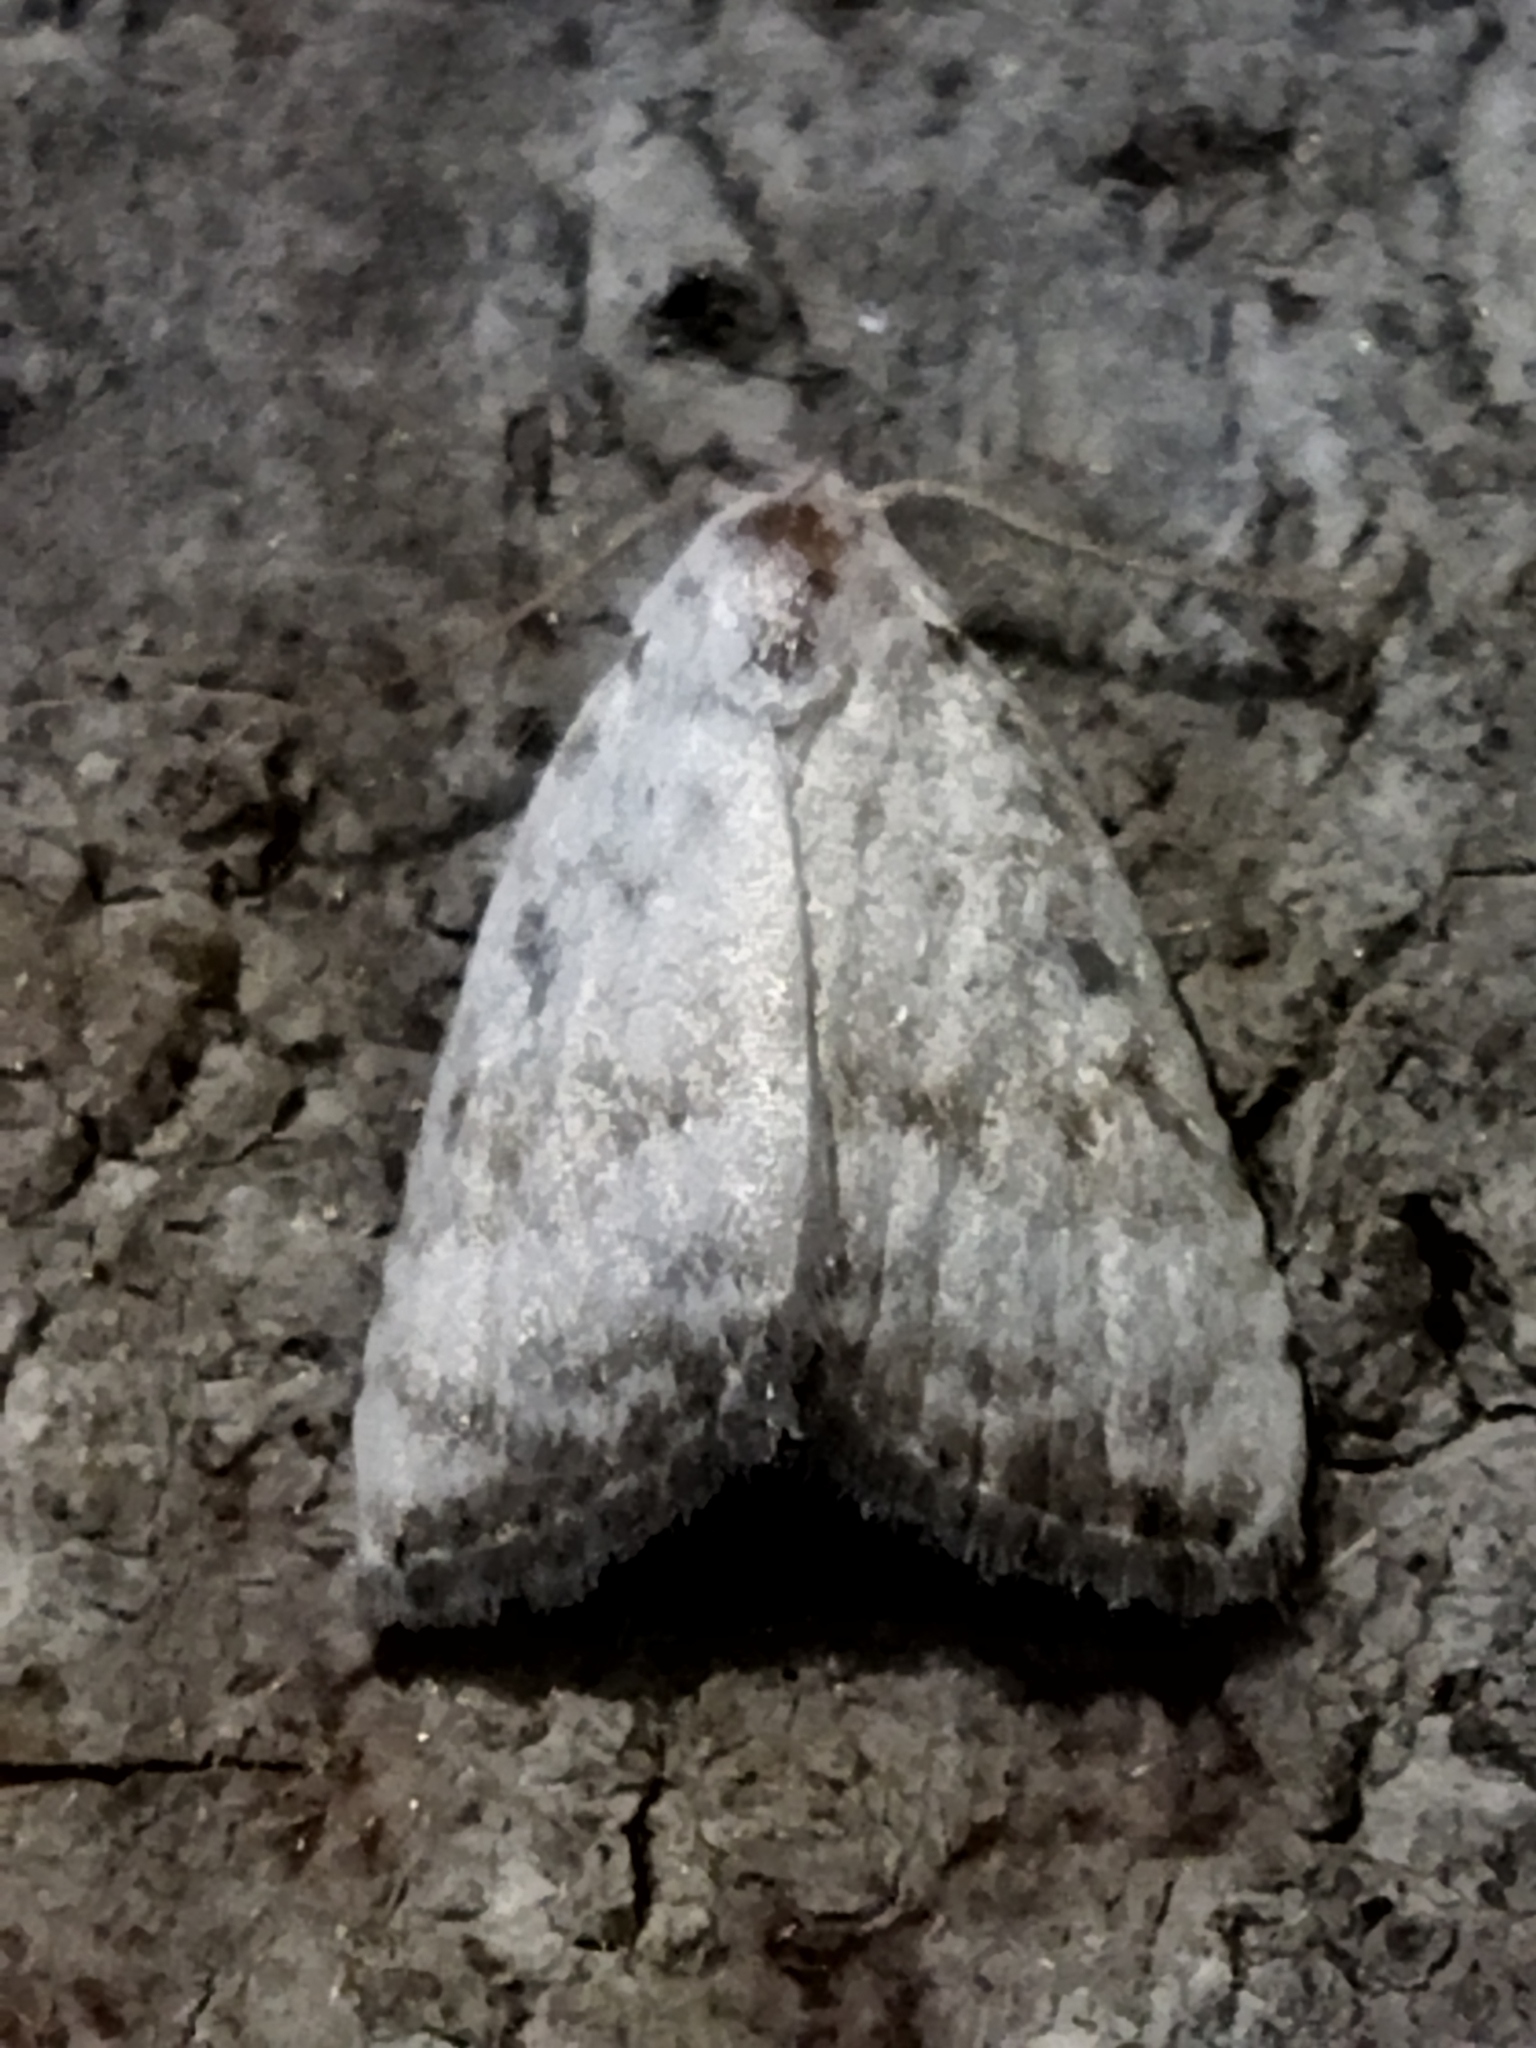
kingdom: Animalia
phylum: Arthropoda
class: Insecta
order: Lepidoptera
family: Nolidae
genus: Nola
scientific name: Nola aerugula
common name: Scarce black arches
